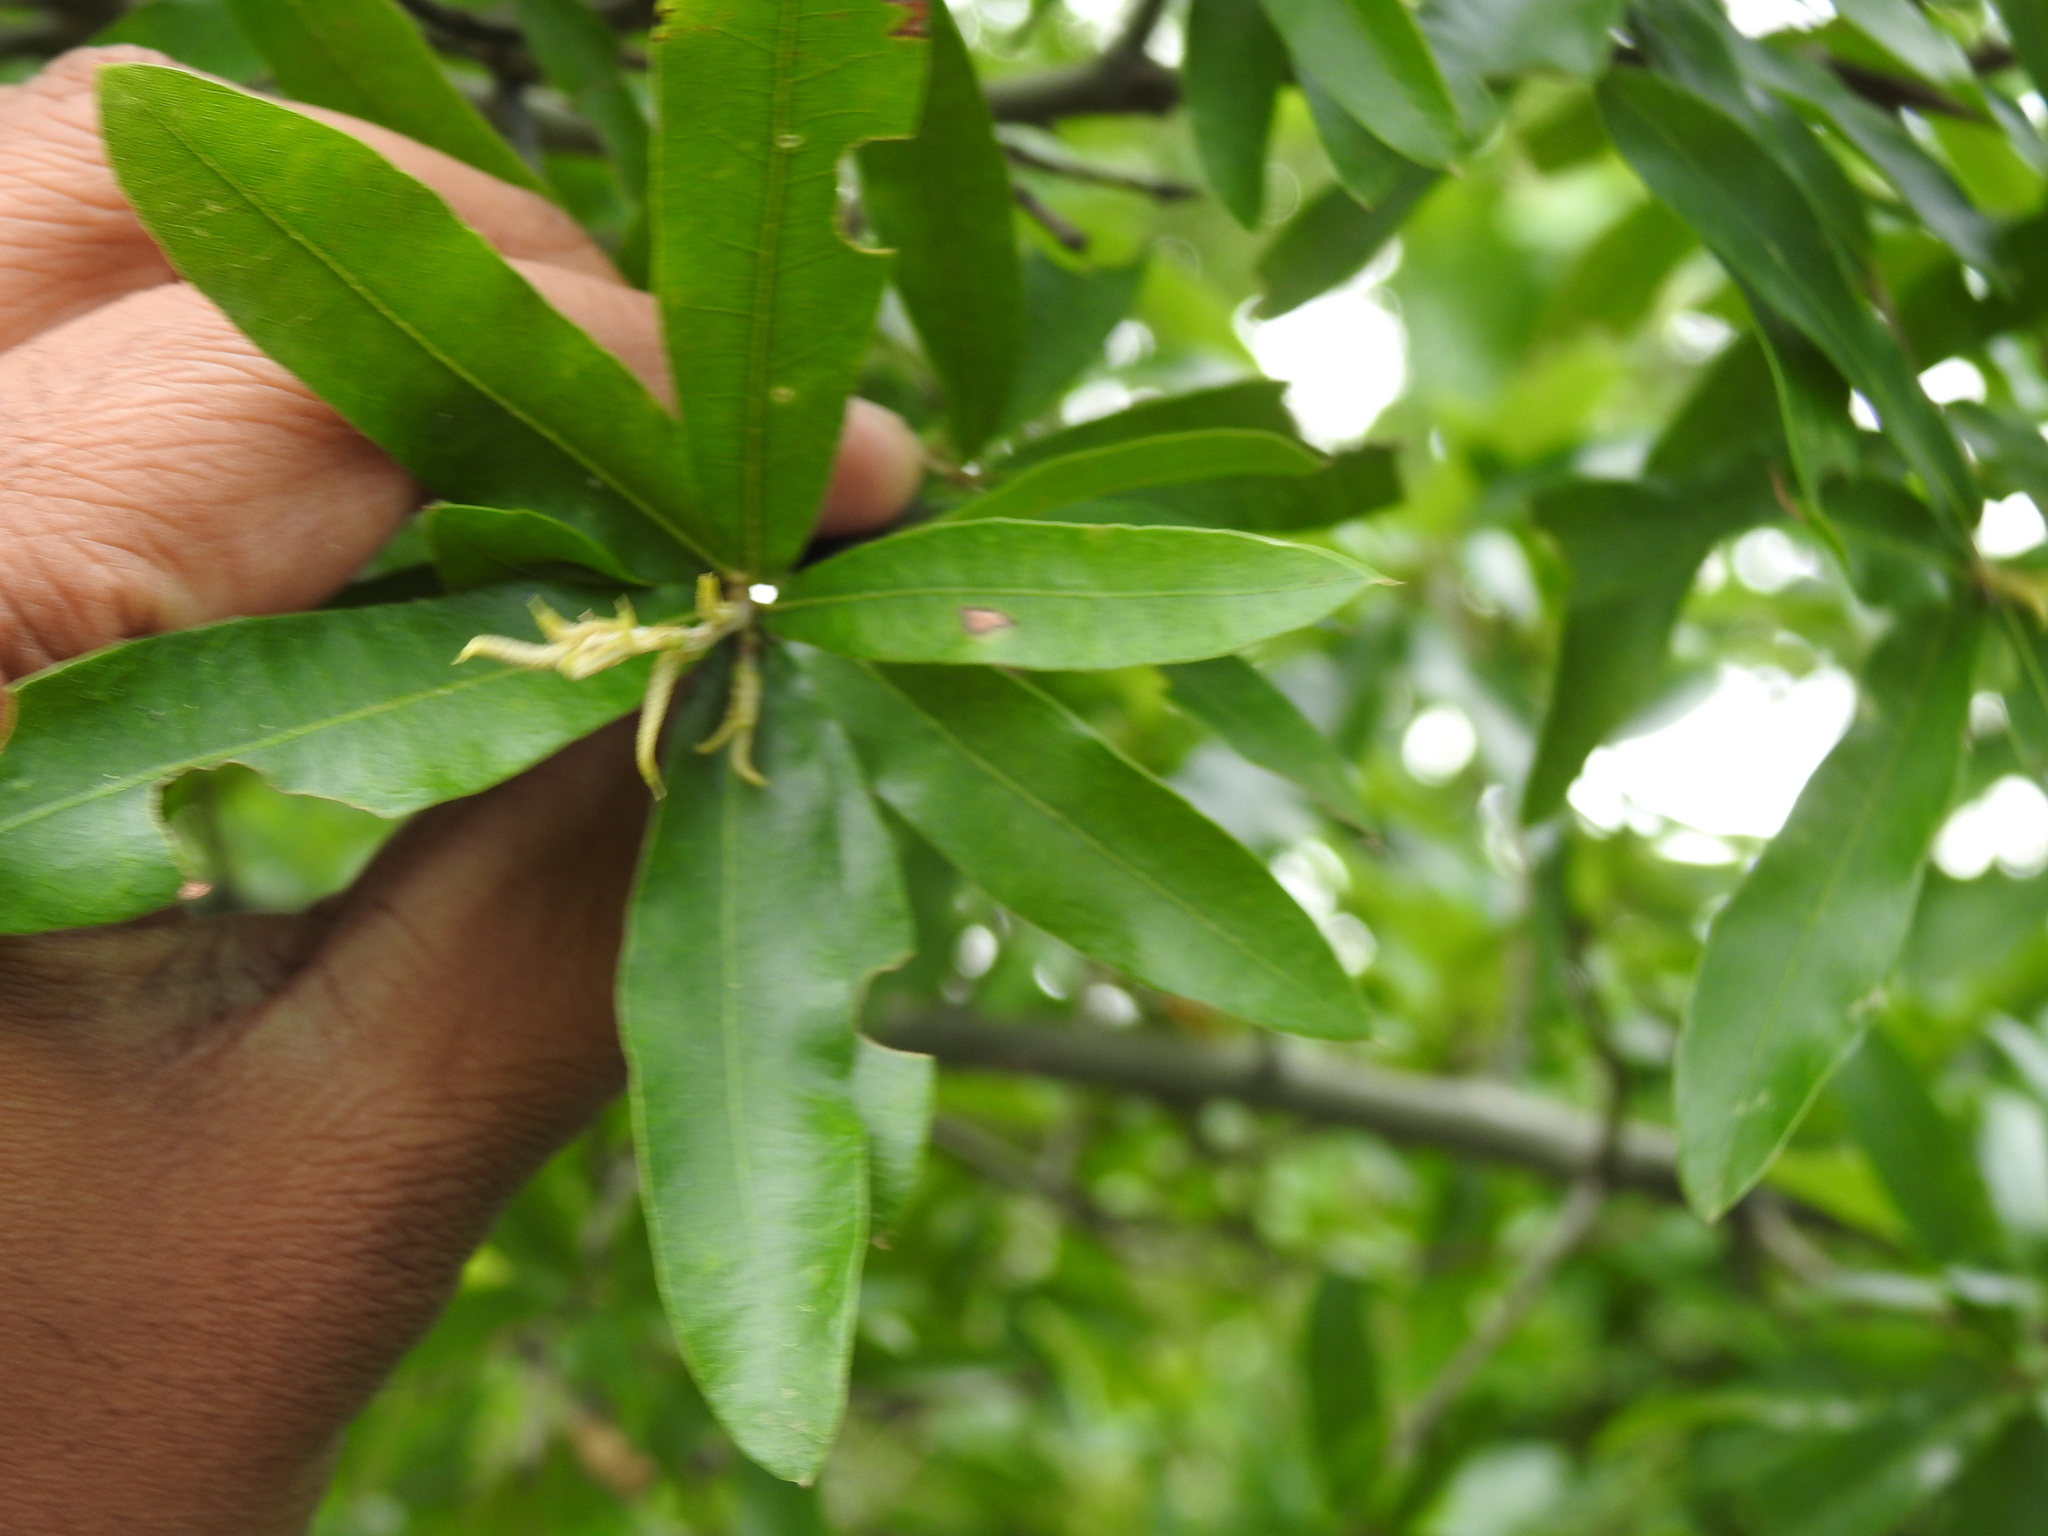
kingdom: Plantae
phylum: Tracheophyta
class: Magnoliopsida
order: Fagales
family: Fagaceae
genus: Quercus
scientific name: Quercus phellos
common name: Willow oak
